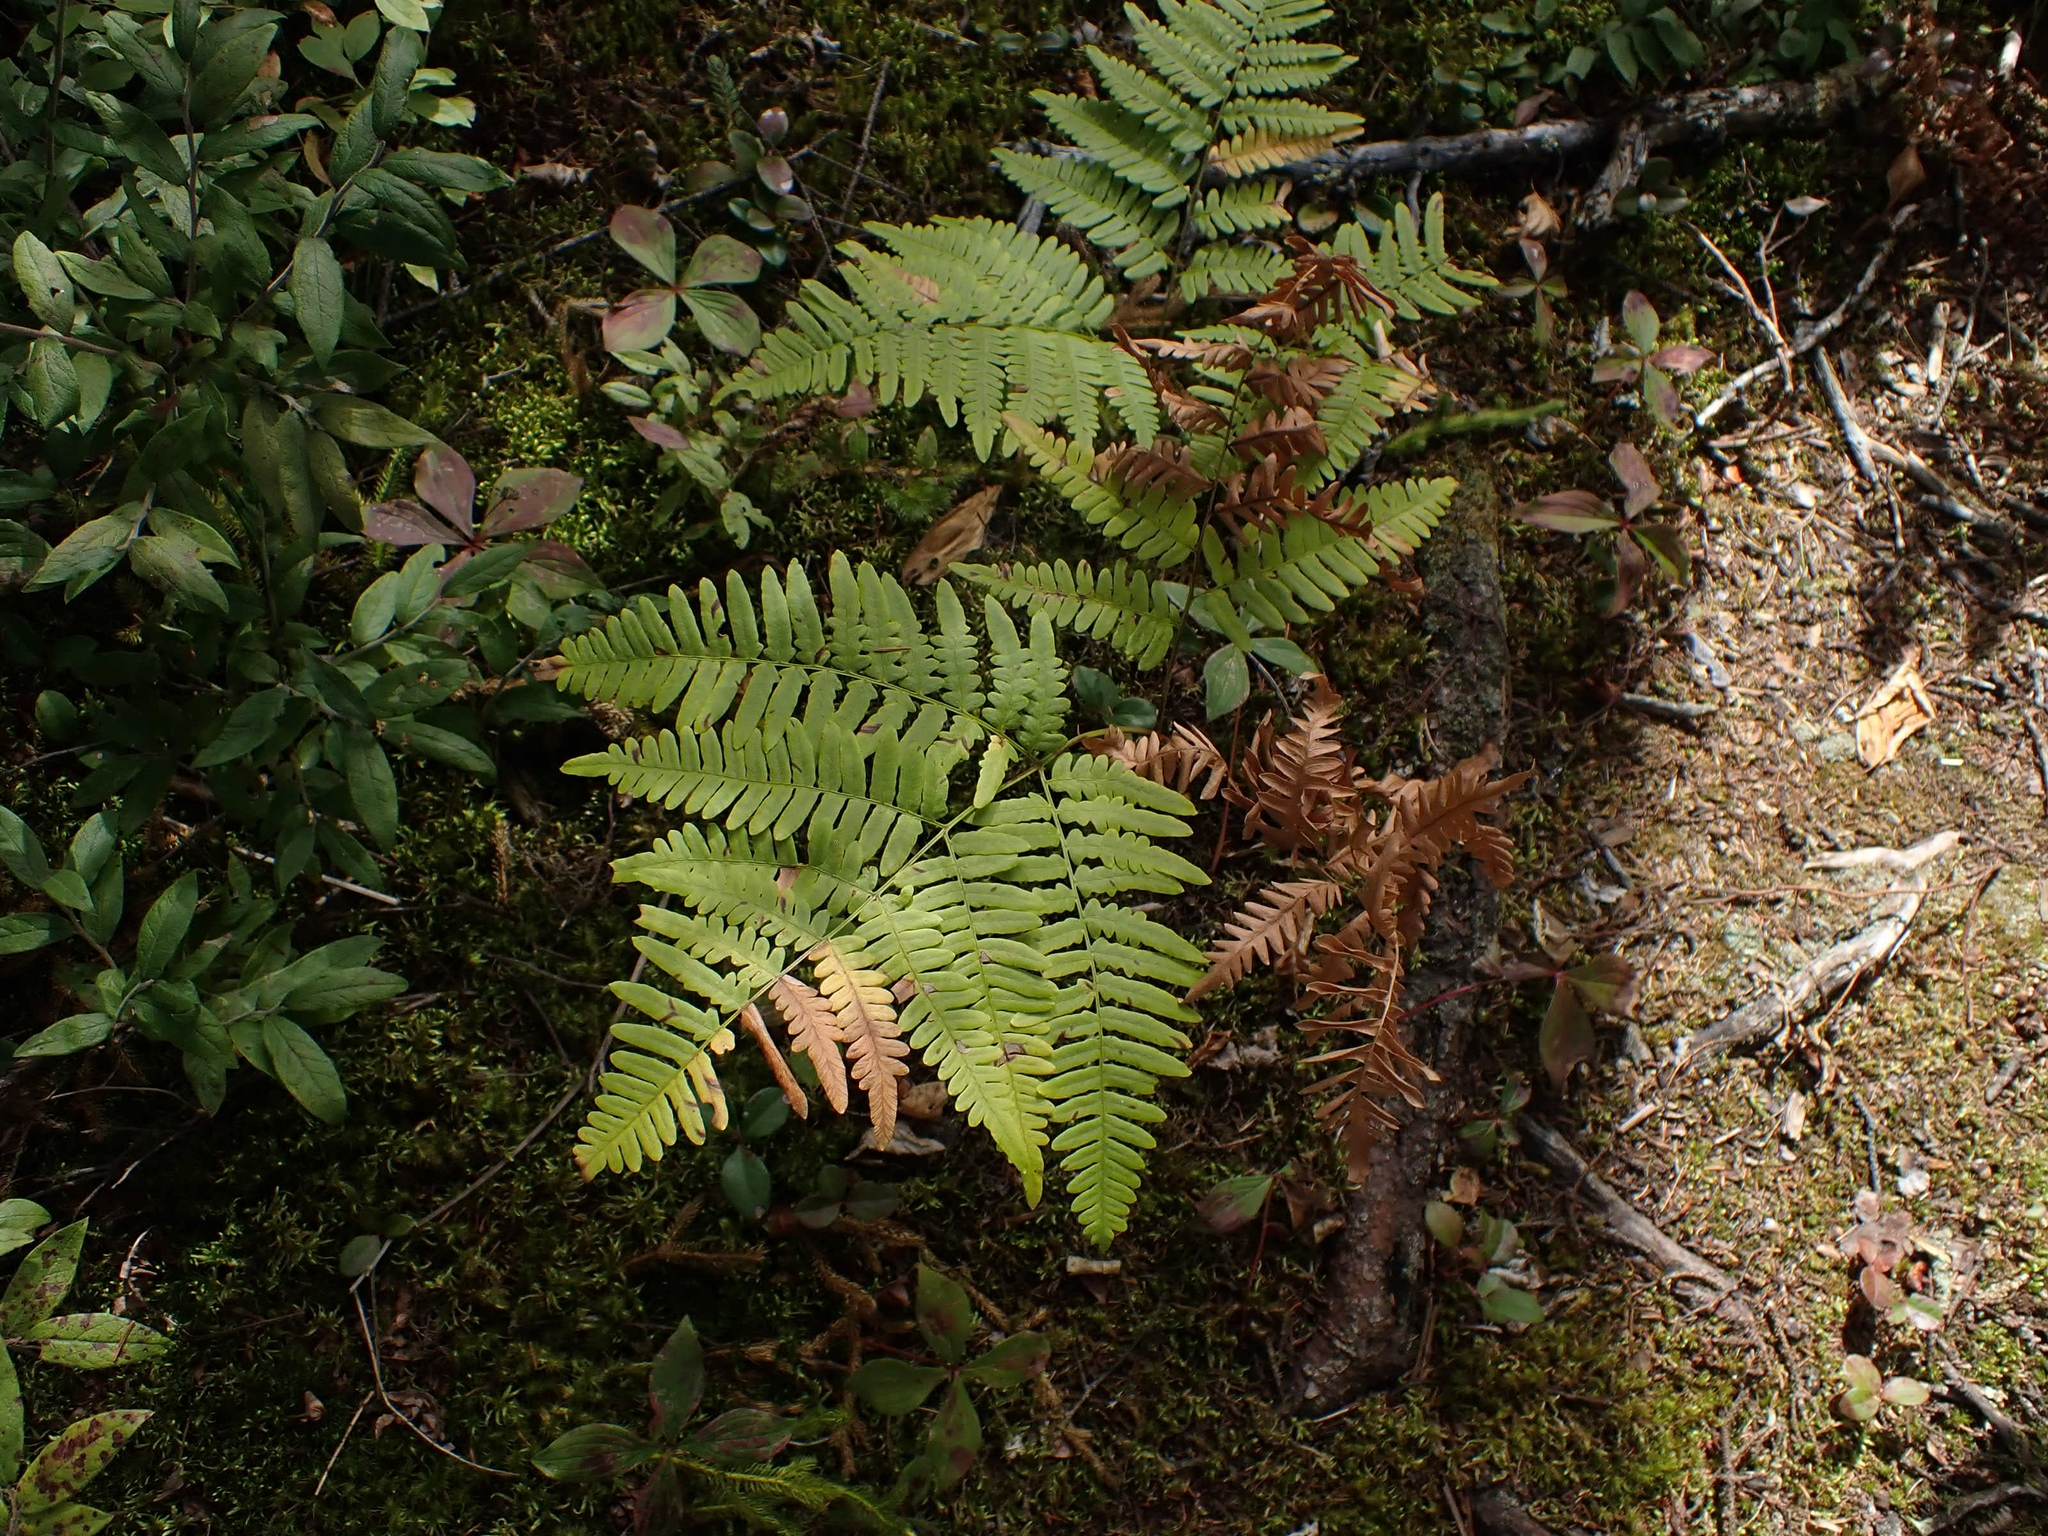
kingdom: Plantae
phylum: Tracheophyta
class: Polypodiopsida
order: Polypodiales
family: Dennstaedtiaceae
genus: Pteridium
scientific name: Pteridium aquilinum
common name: Bracken
